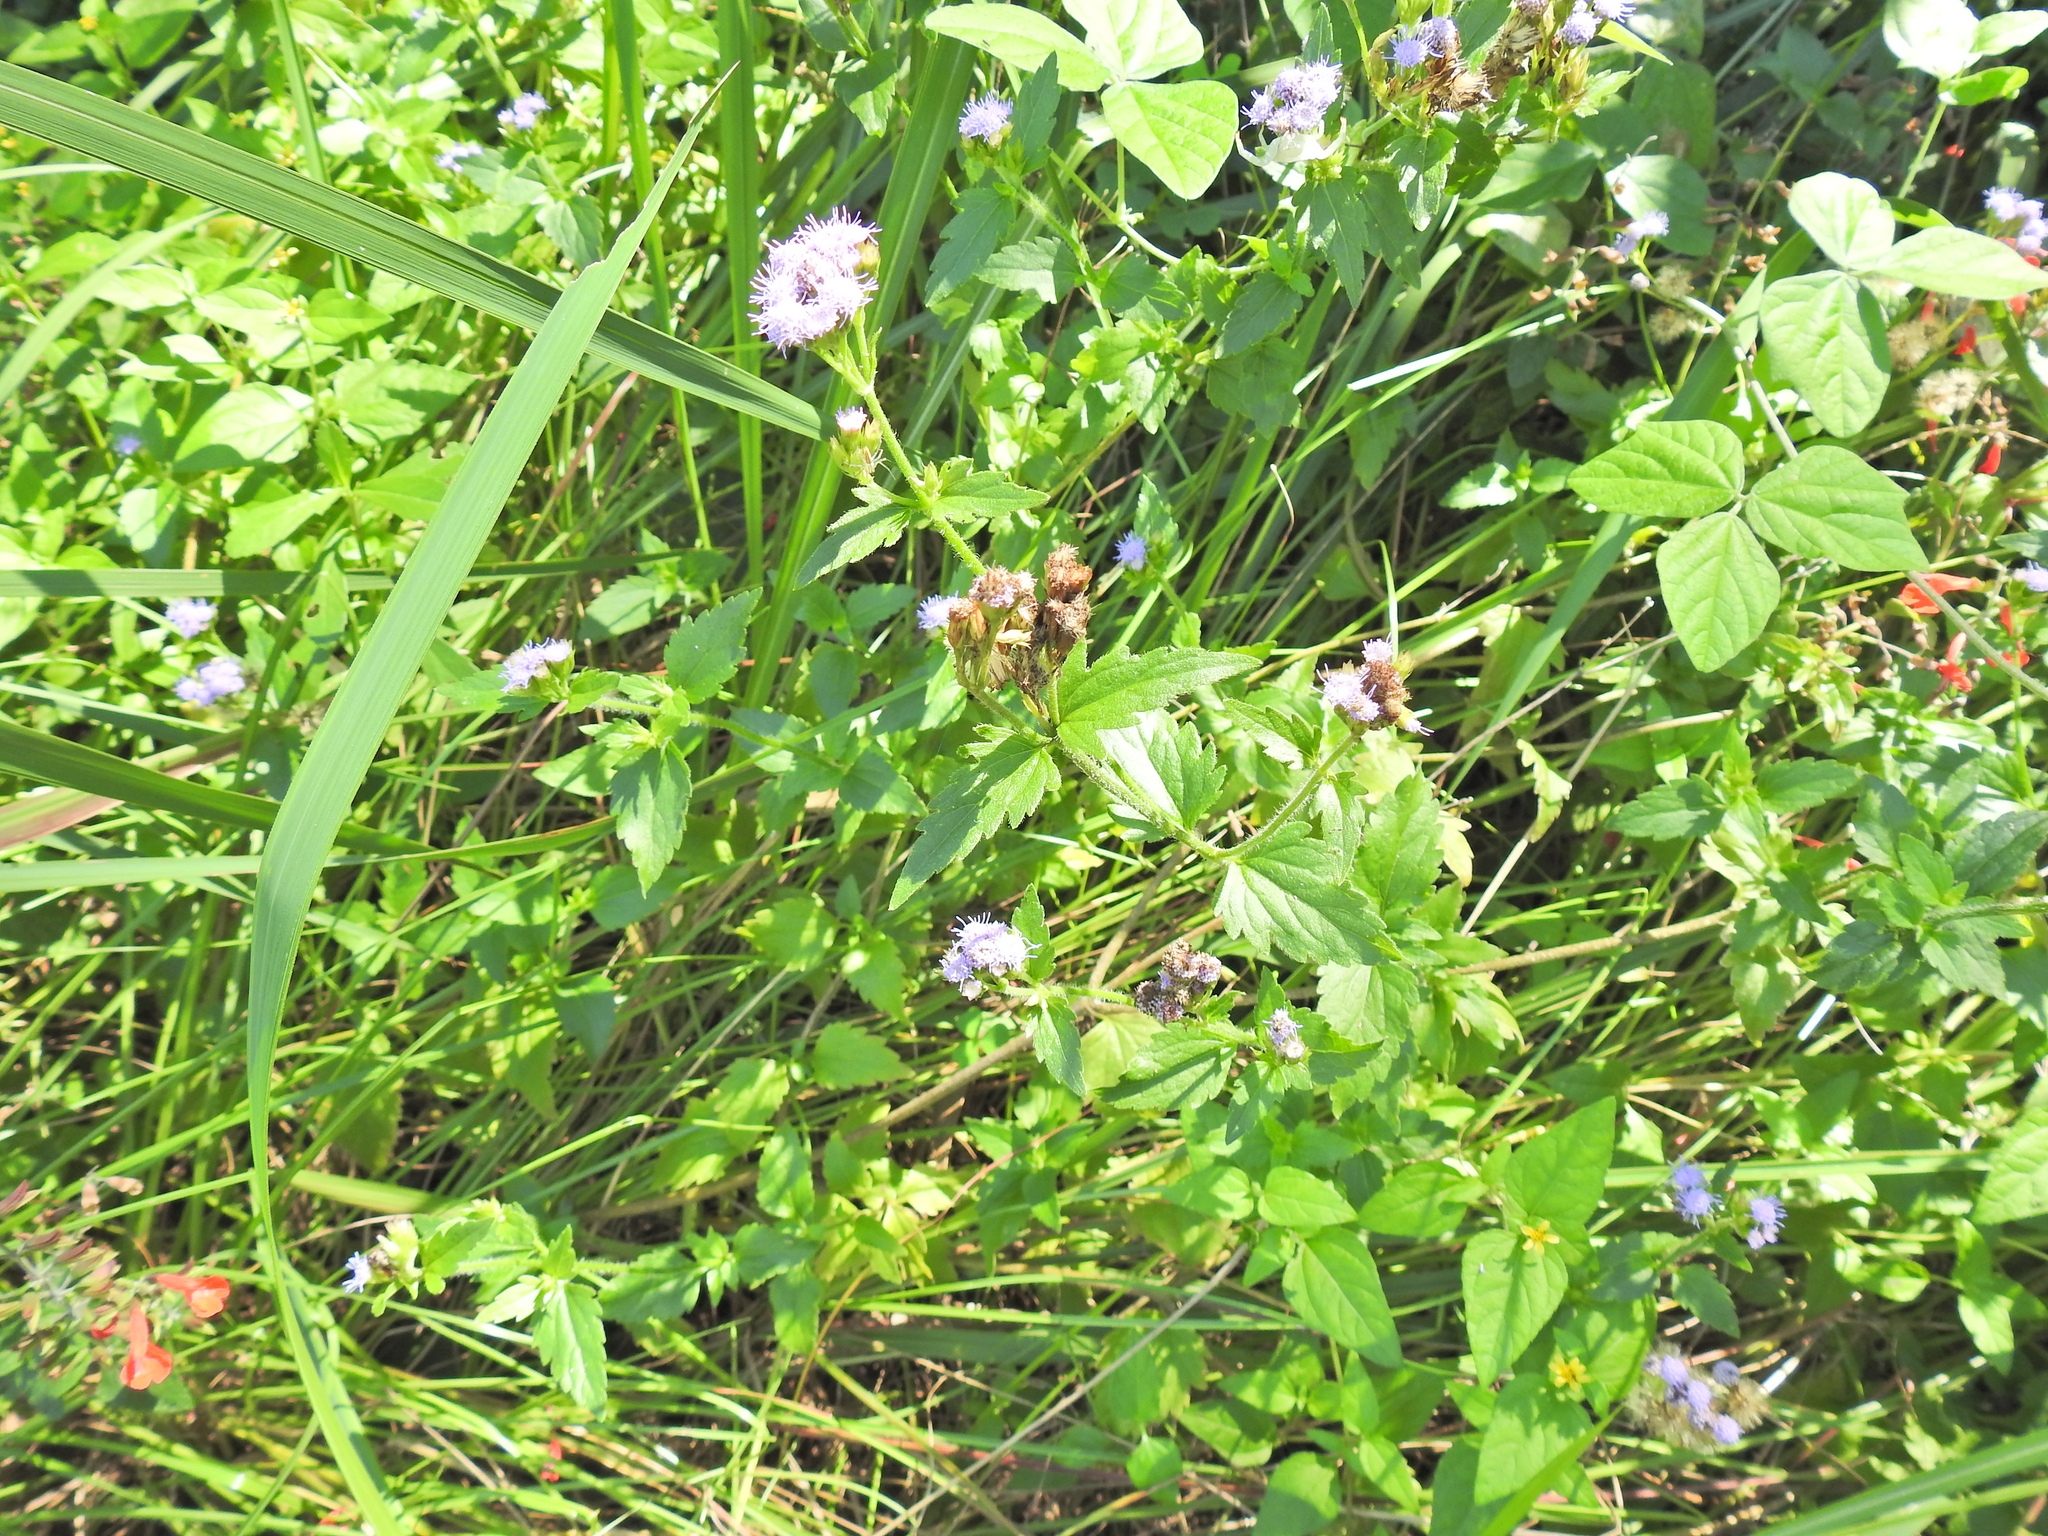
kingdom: Plantae
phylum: Tracheophyta
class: Magnoliopsida
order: Asterales
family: Asteraceae
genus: Praxelis
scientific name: Praxelis clematidea
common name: Praxelis
